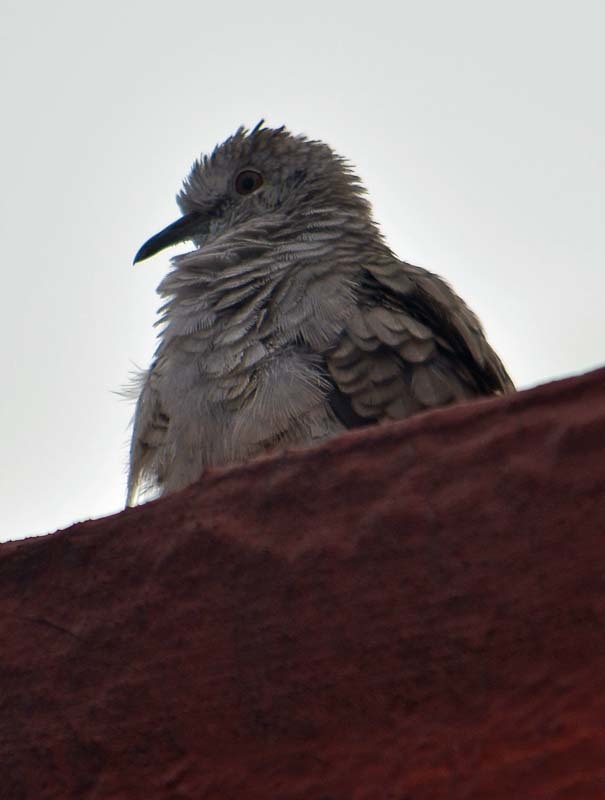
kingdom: Animalia
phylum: Chordata
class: Aves
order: Columbiformes
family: Columbidae
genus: Columbina
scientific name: Columbina inca
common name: Inca dove
